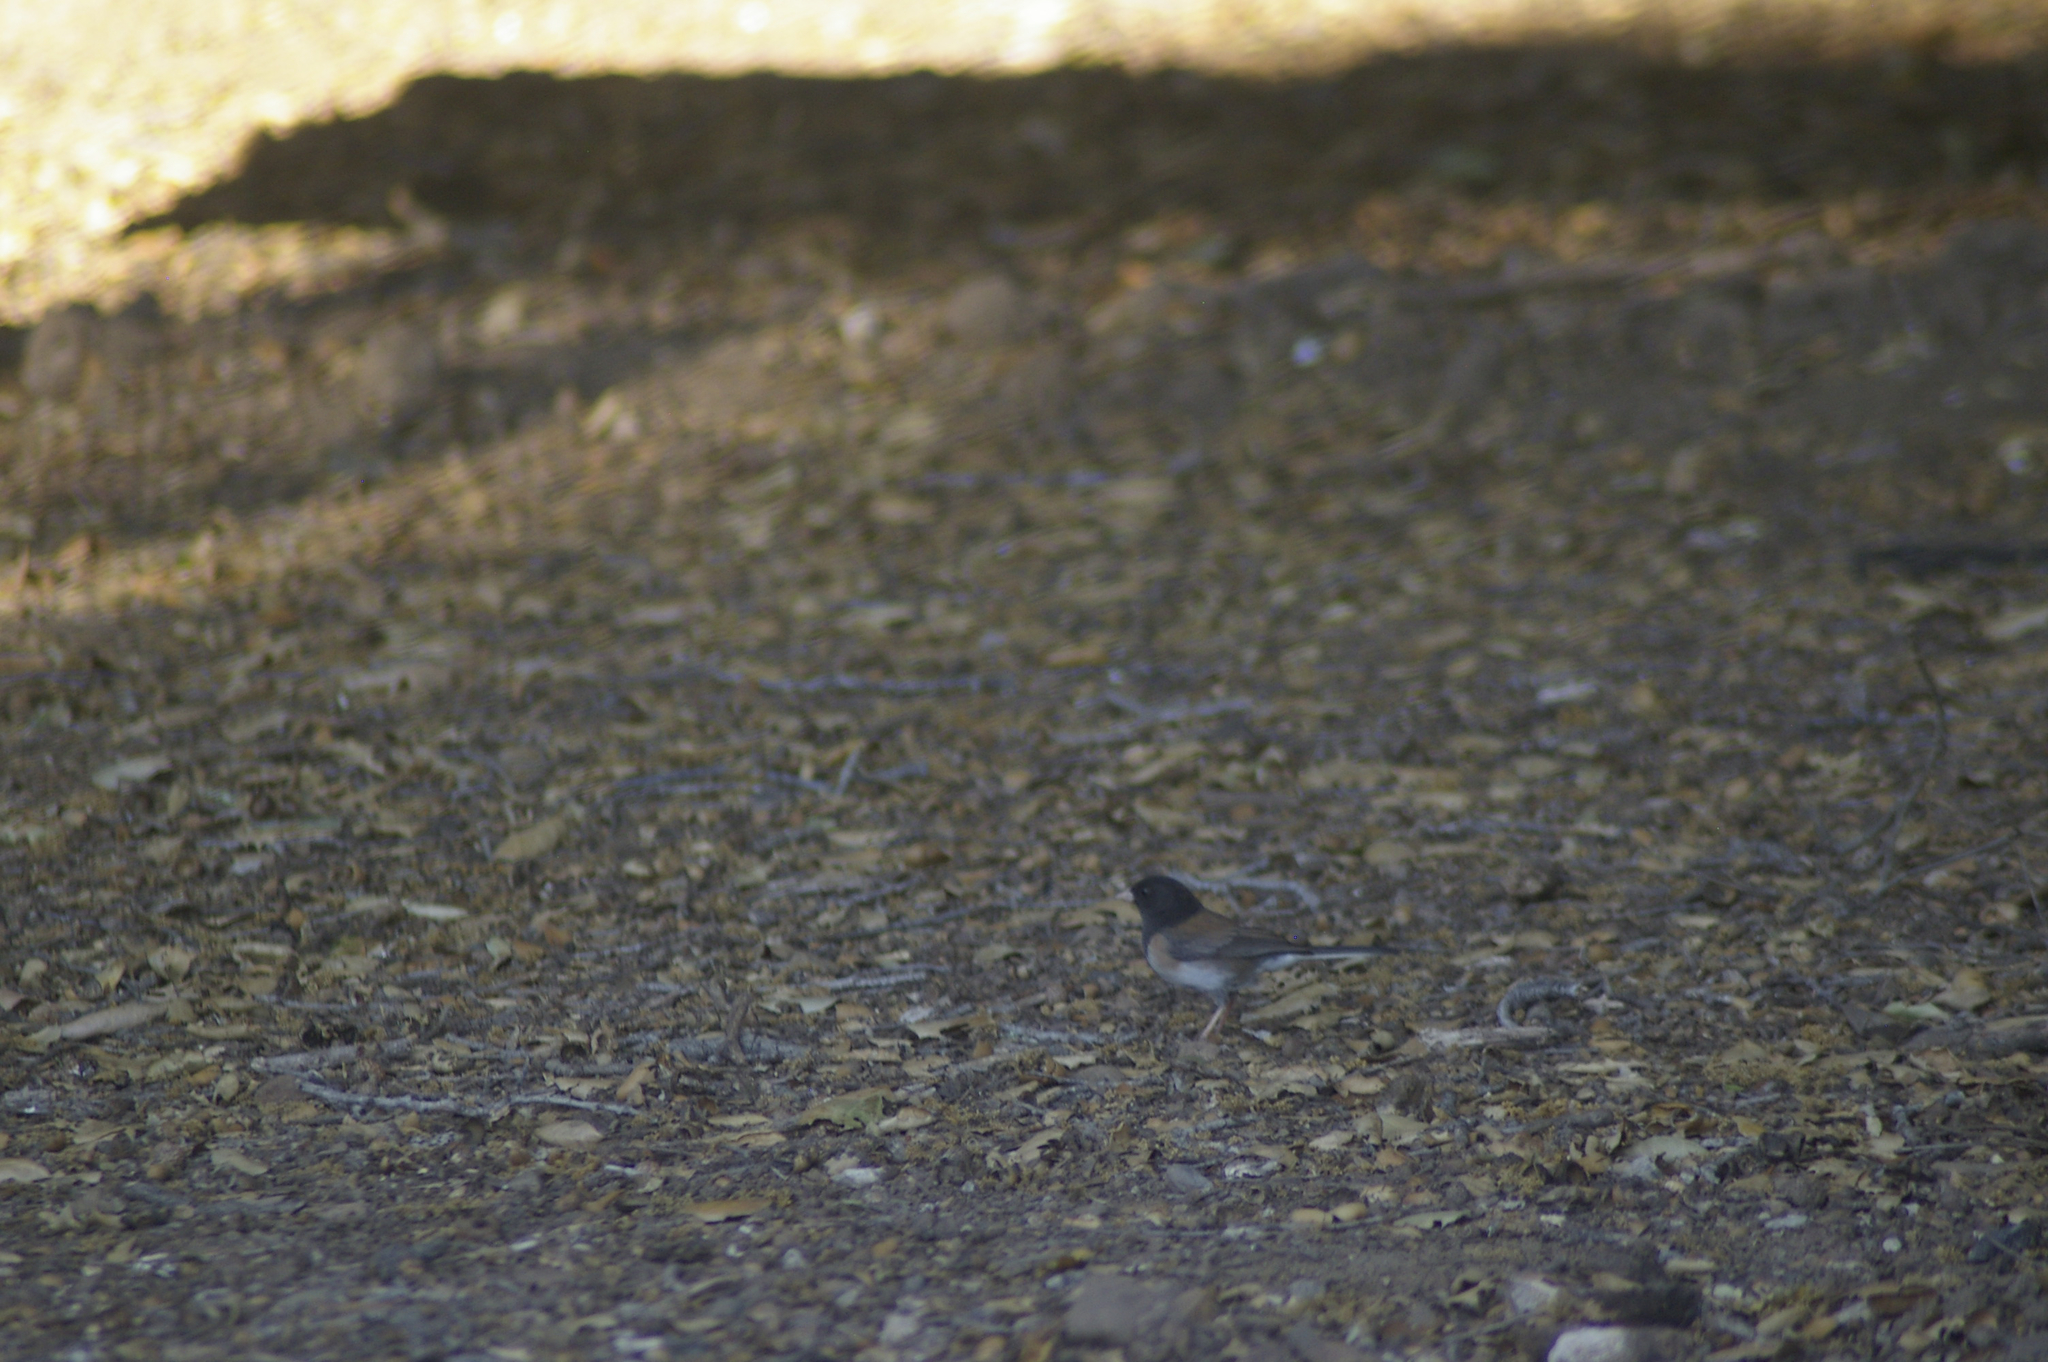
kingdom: Animalia
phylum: Chordata
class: Aves
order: Passeriformes
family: Passerellidae
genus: Junco
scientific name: Junco hyemalis
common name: Dark-eyed junco
